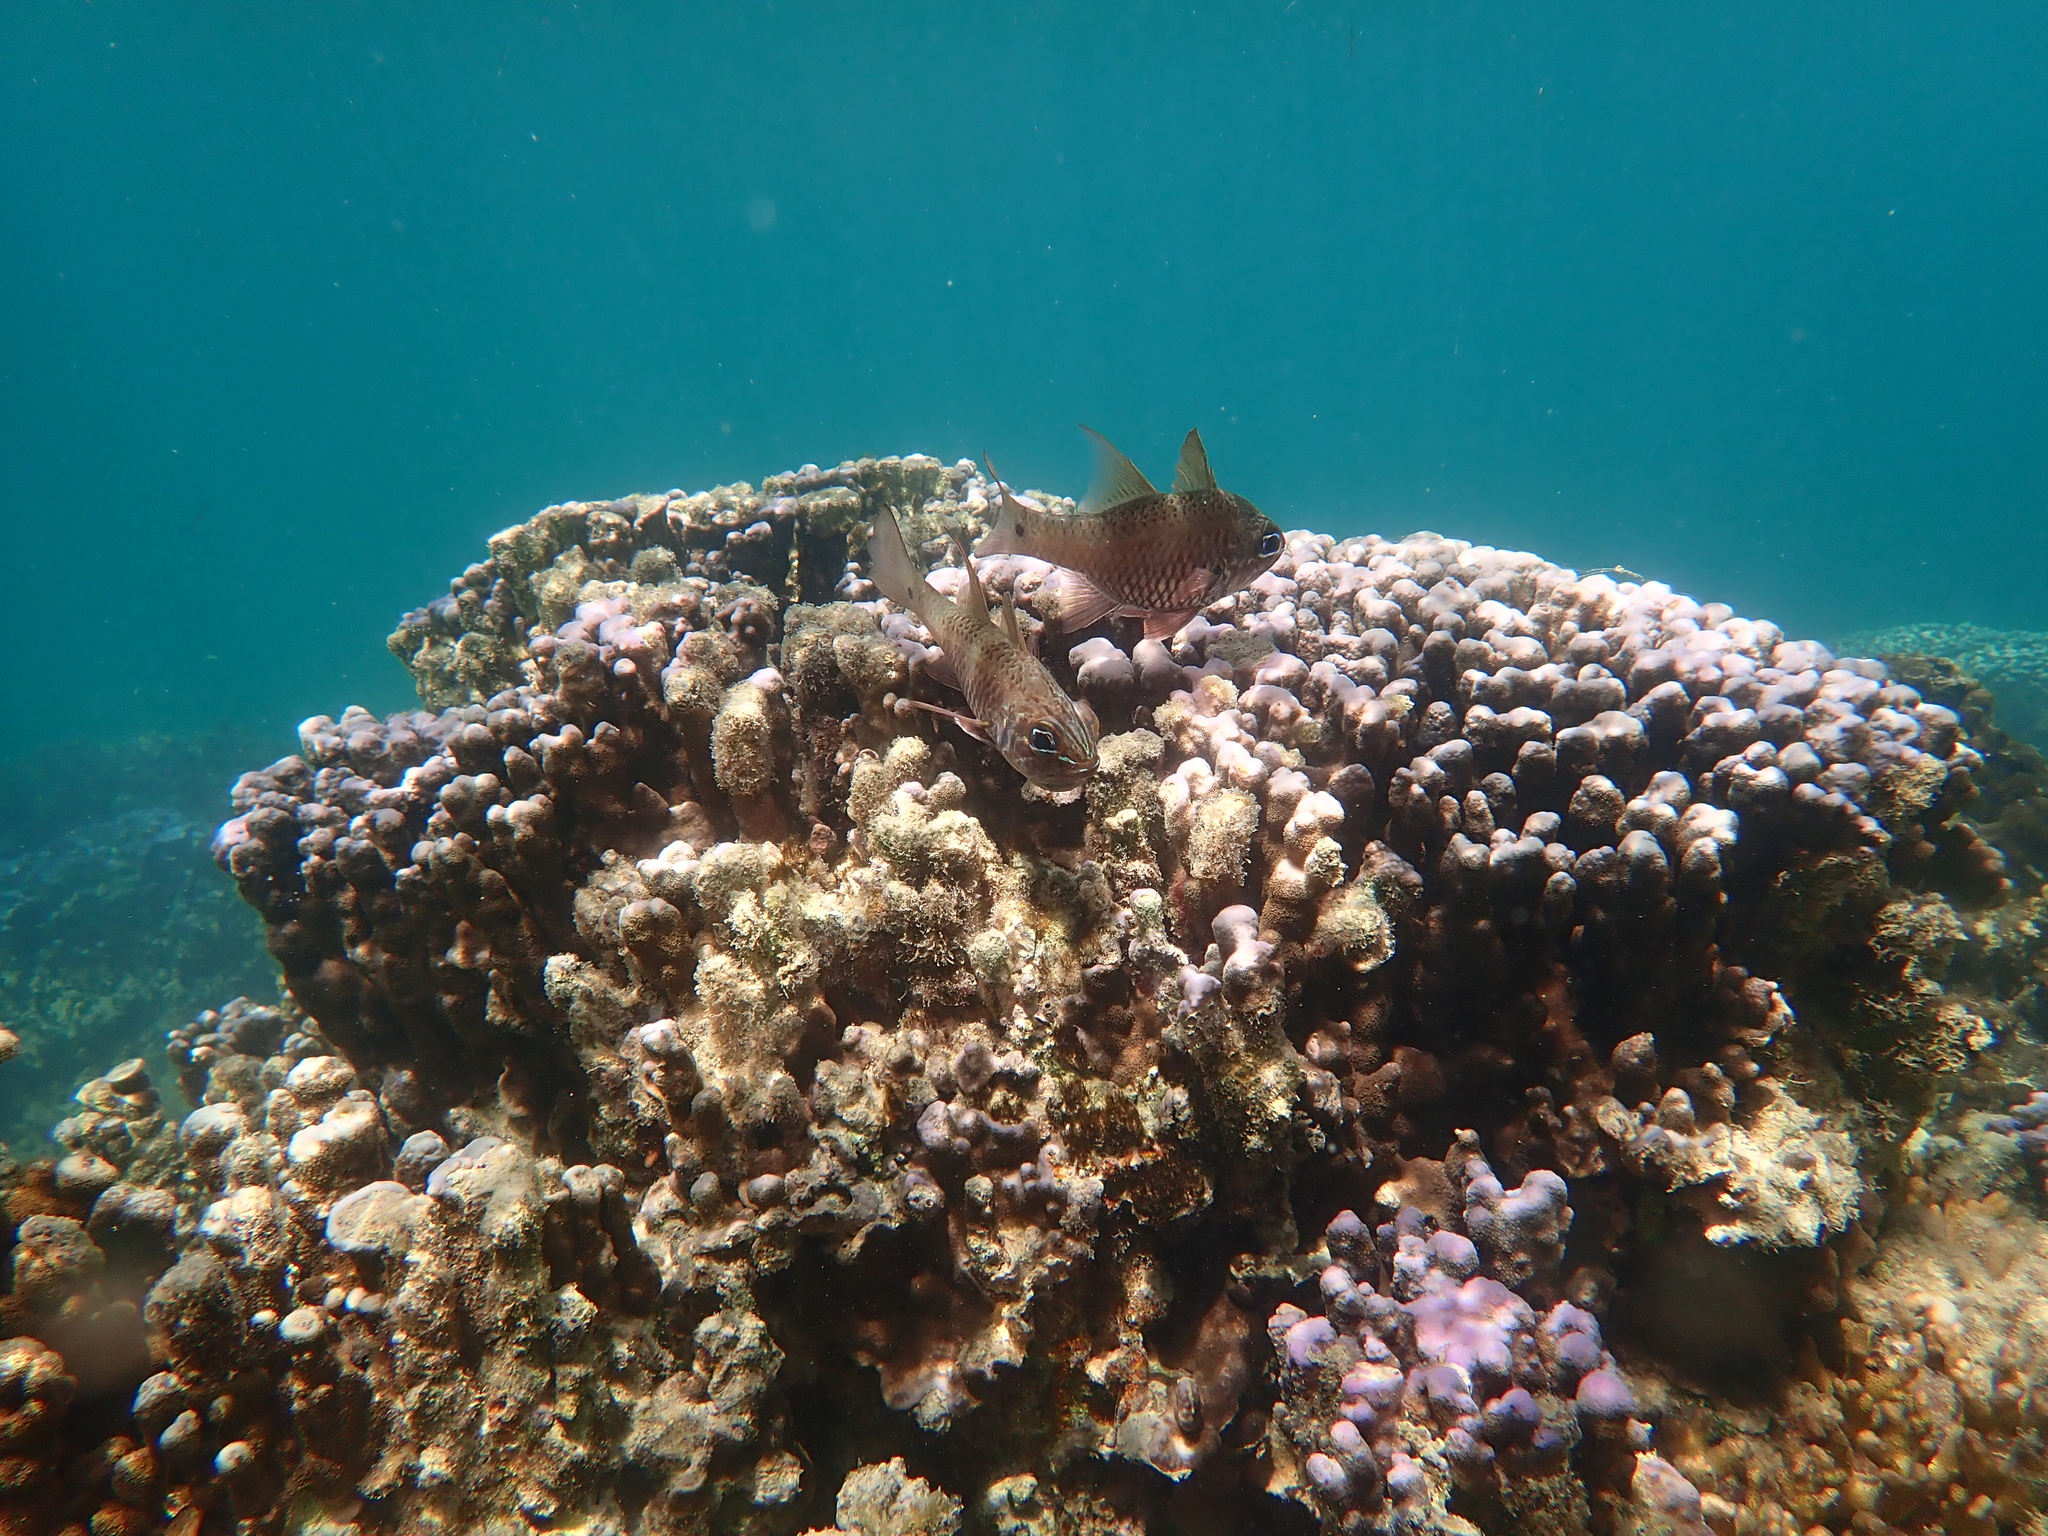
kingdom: Animalia
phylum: Chordata
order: Perciformes
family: Apogonidae
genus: Ostorhinchus
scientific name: Ostorhinchus norfolcensis
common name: Norfolk cardinalfish
